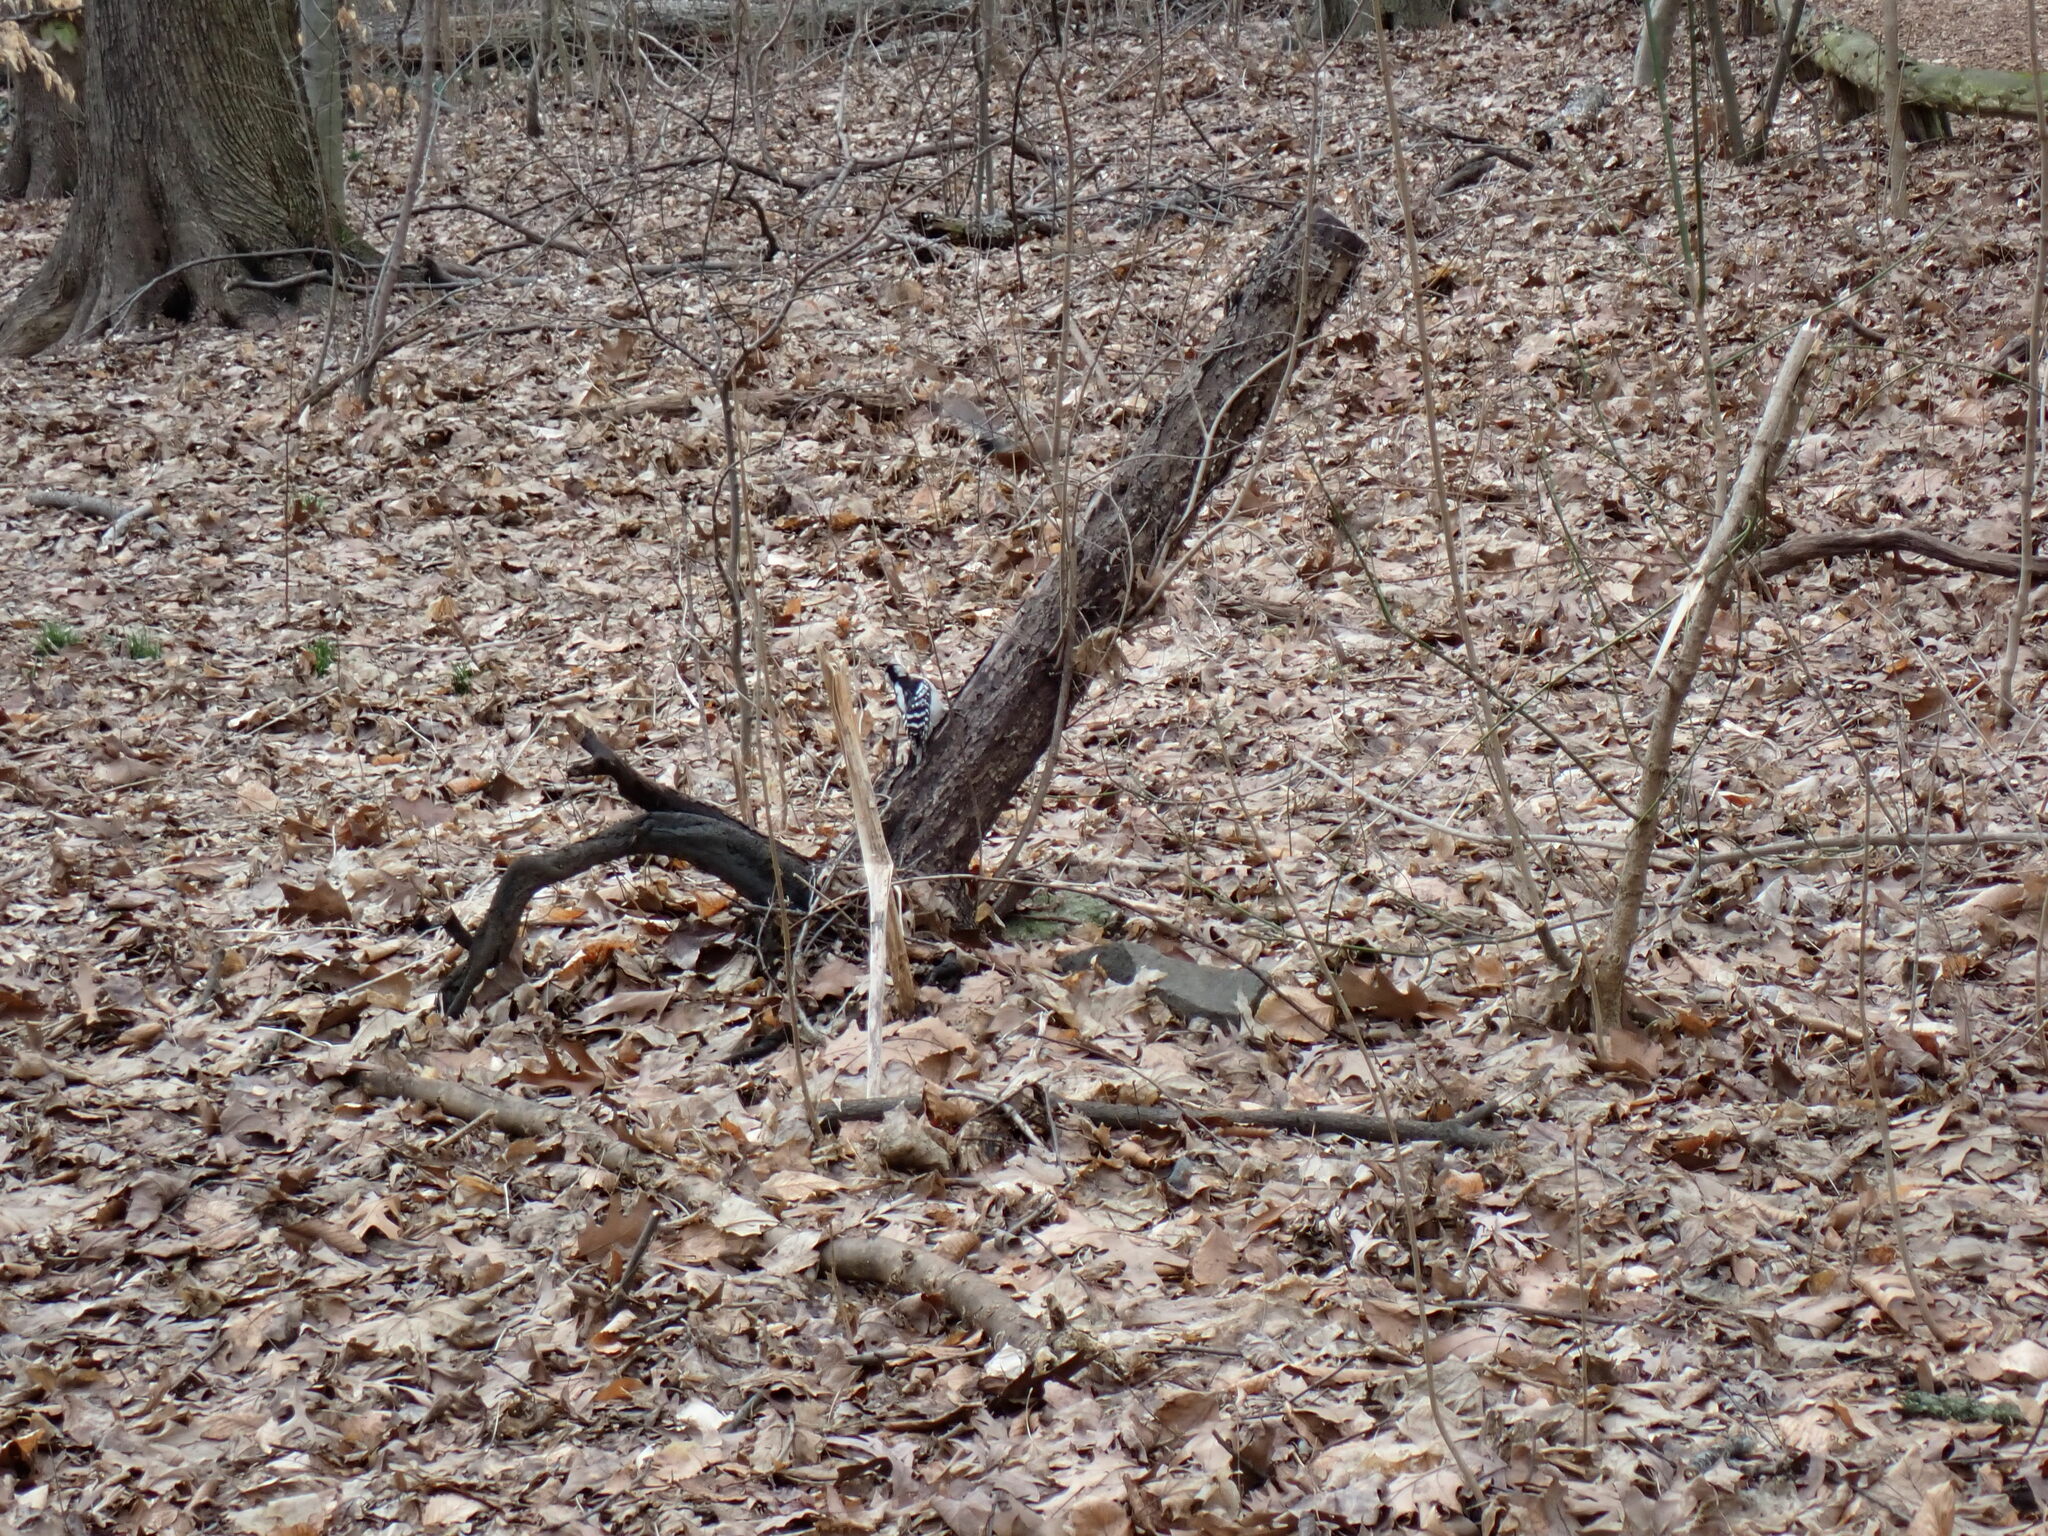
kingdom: Animalia
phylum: Chordata
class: Aves
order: Piciformes
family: Picidae
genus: Leuconotopicus
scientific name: Leuconotopicus villosus
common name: Hairy woodpecker
